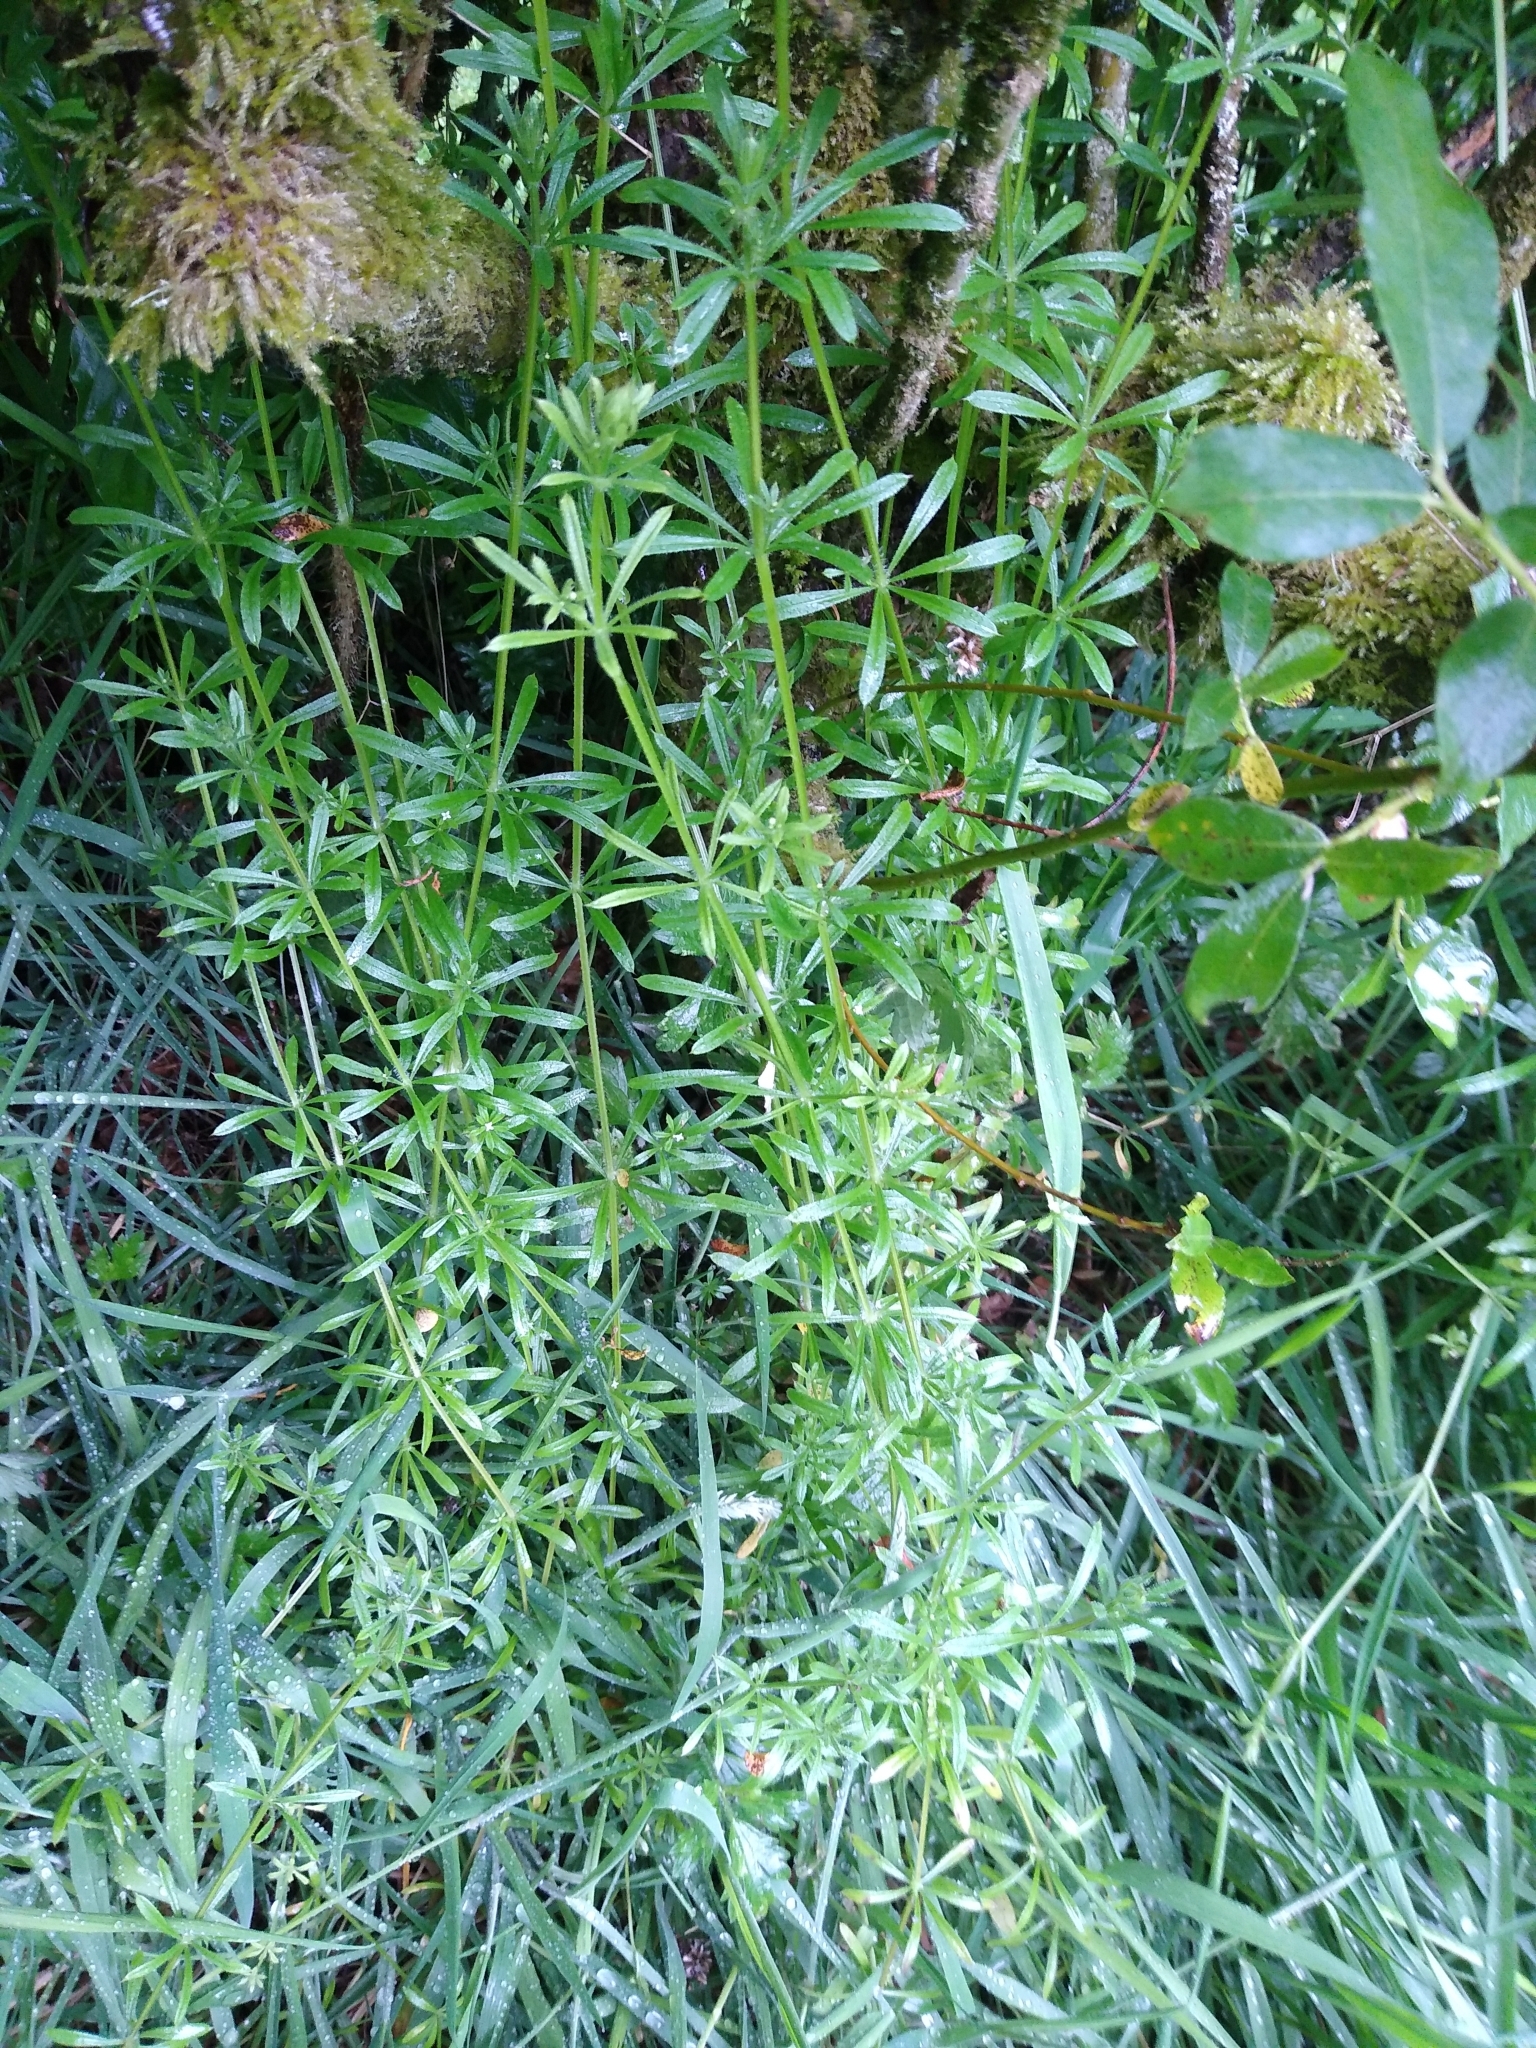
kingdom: Plantae
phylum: Tracheophyta
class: Magnoliopsida
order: Gentianales
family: Rubiaceae
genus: Galium
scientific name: Galium aparine
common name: Cleavers
